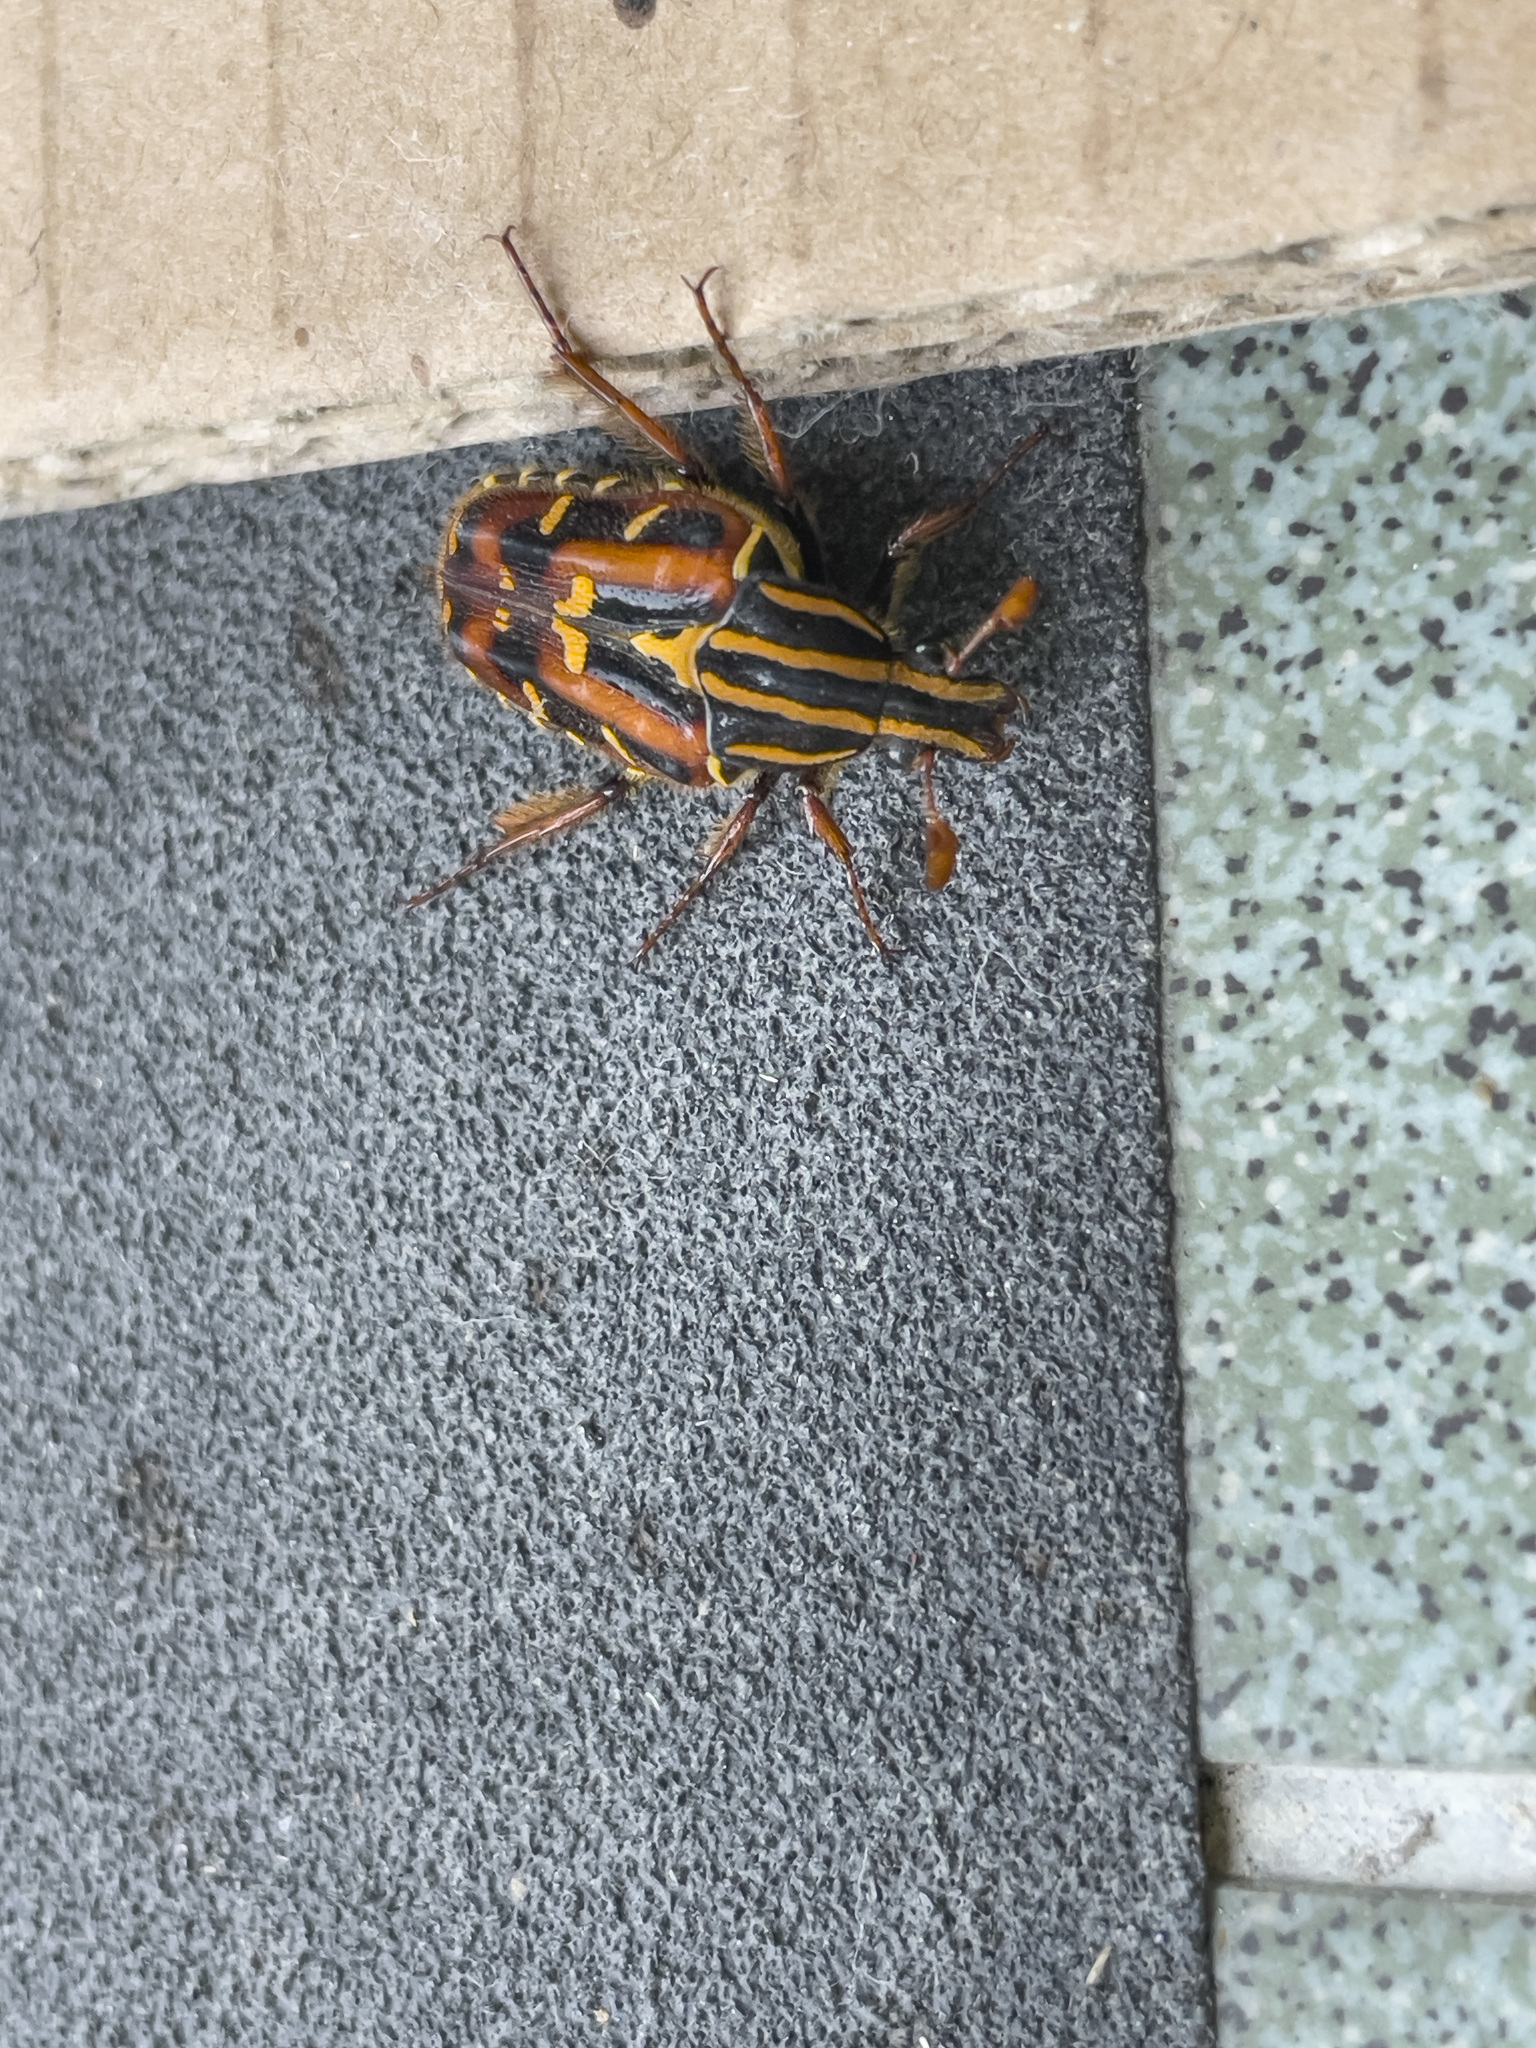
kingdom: Animalia
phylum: Arthropoda
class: Insecta
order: Coleoptera
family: Scarabaeidae
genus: Euselates
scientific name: Euselates magna
